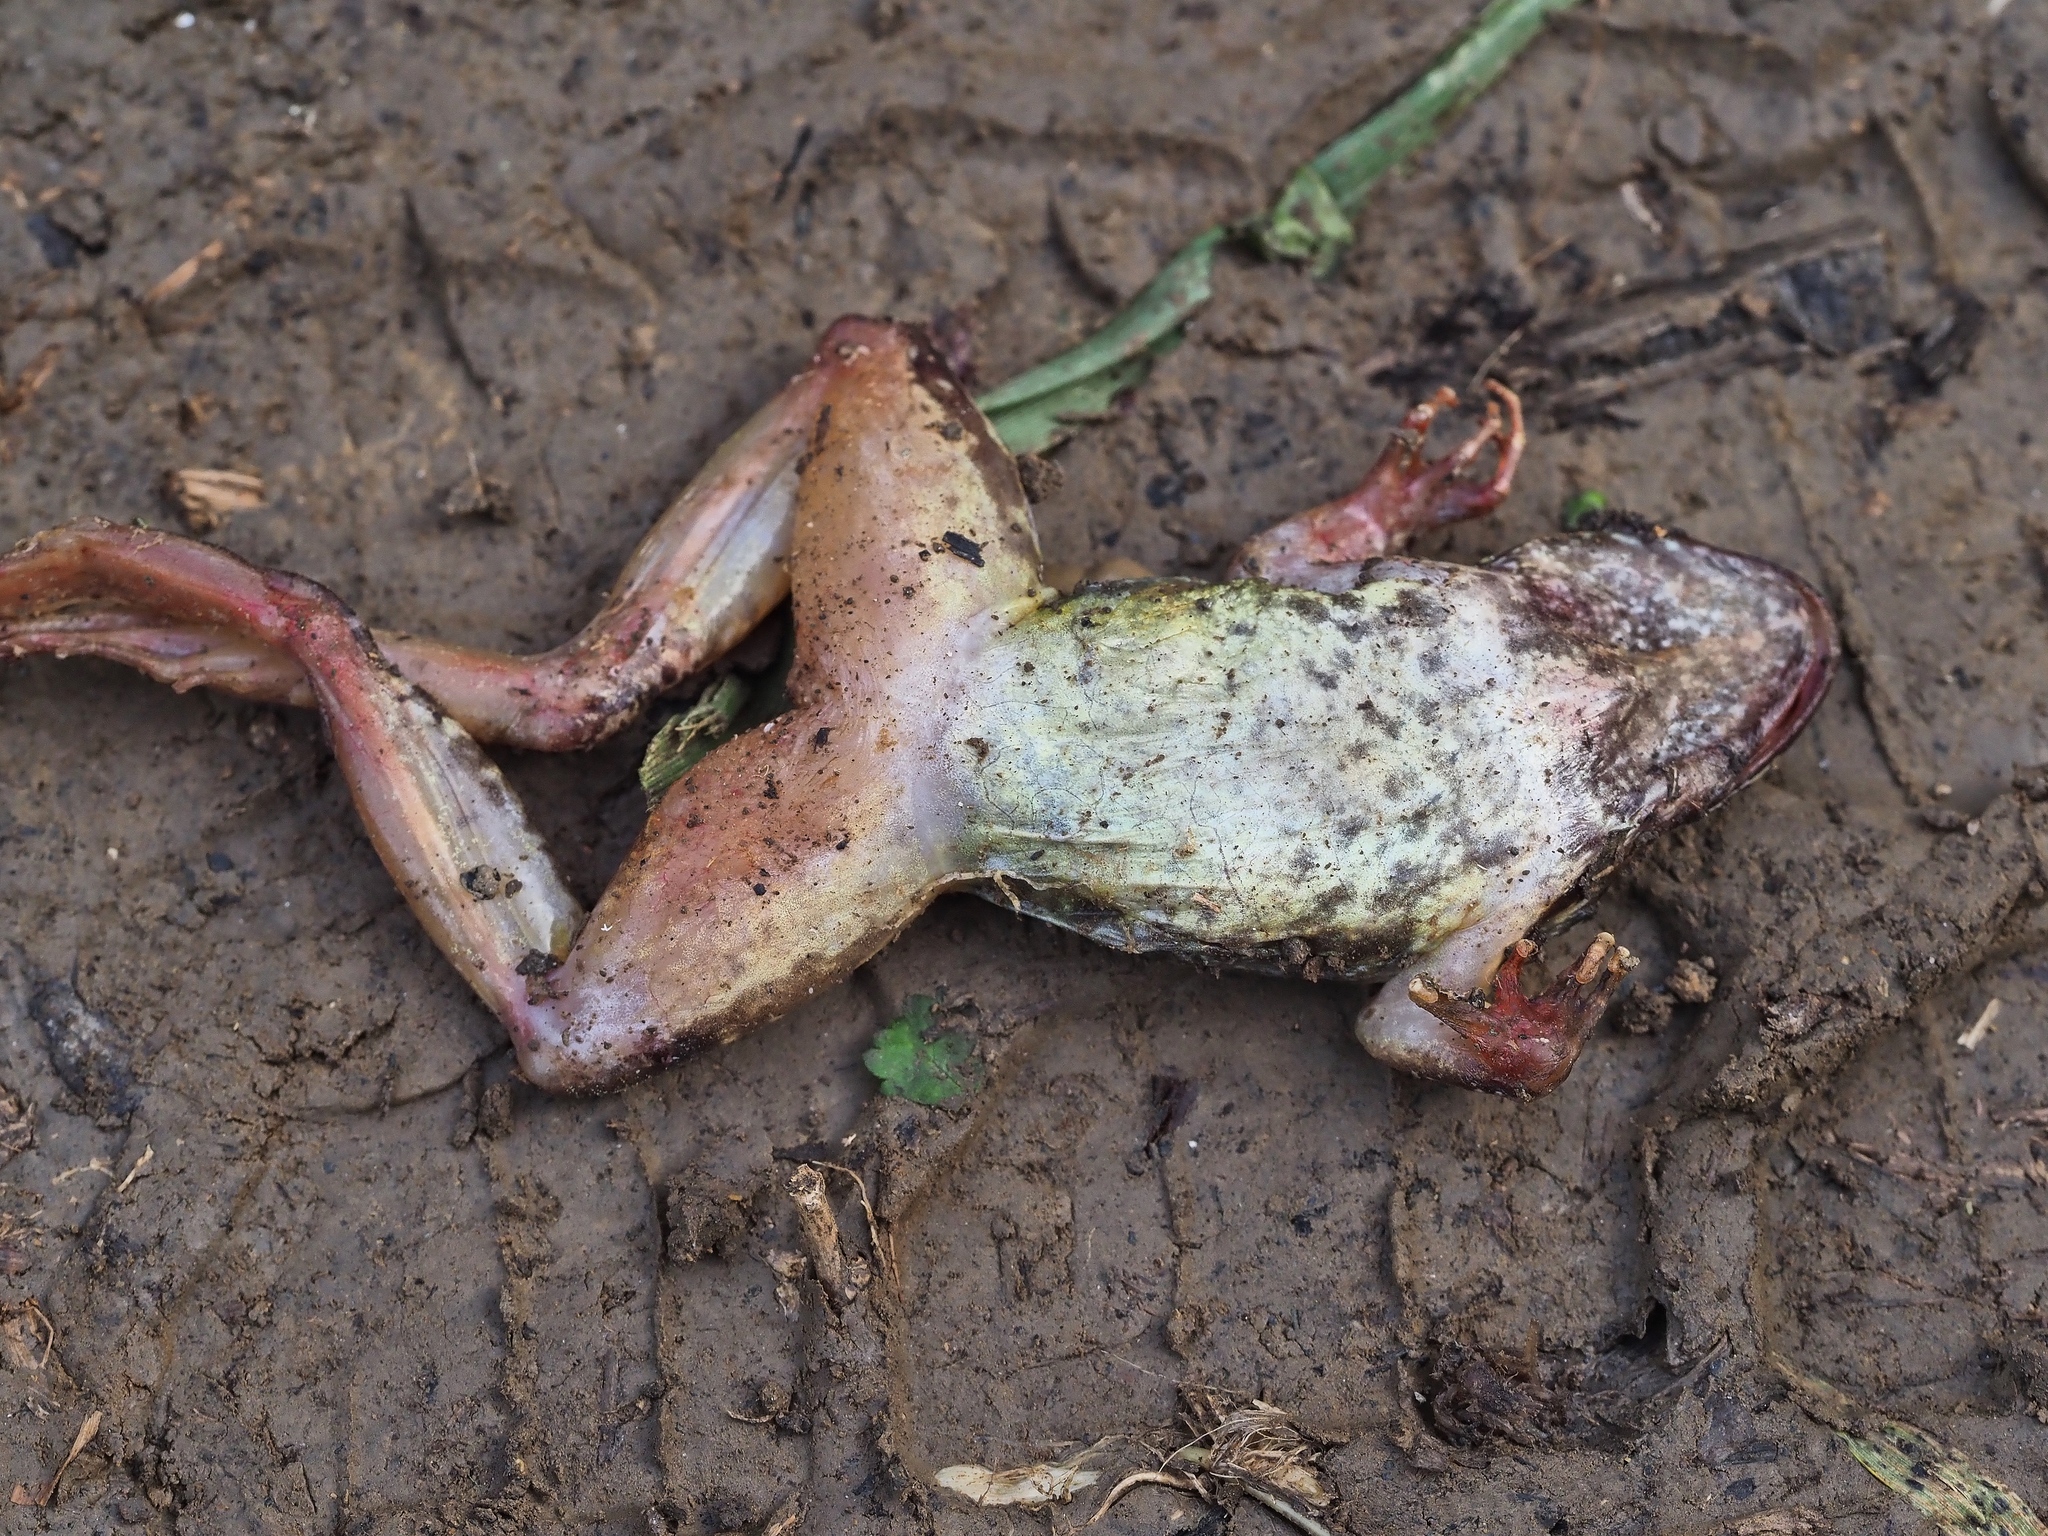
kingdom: Animalia
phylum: Chordata
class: Amphibia
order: Anura
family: Ranidae
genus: Rana
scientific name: Rana temporaria
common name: Common frog
